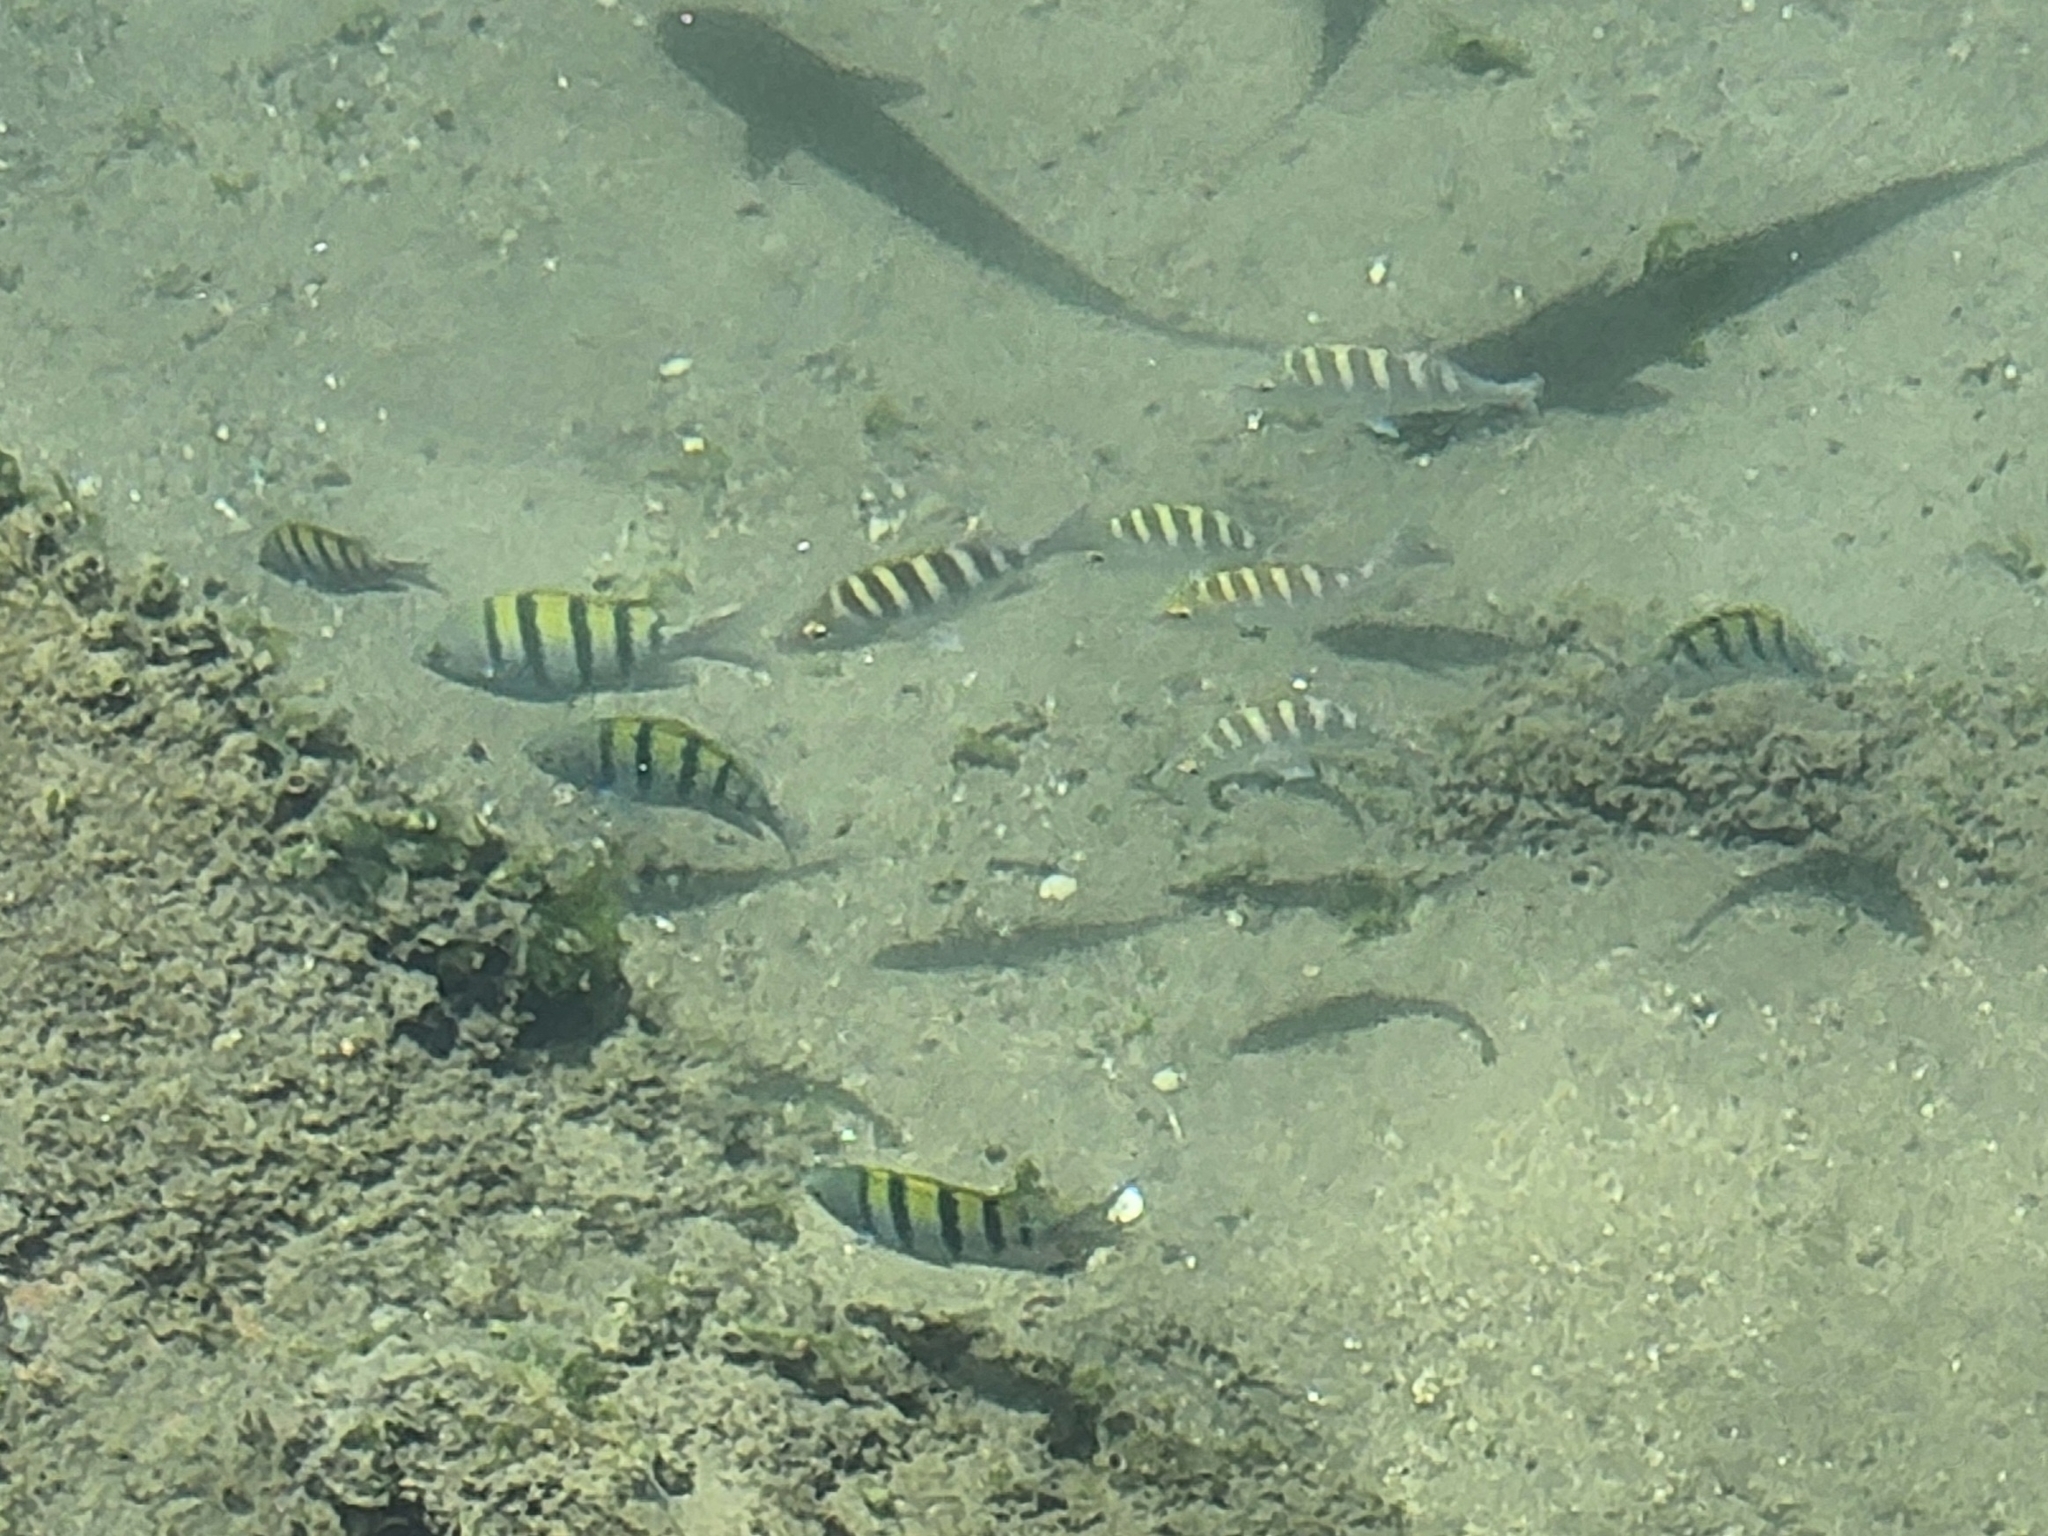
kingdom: Animalia
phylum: Chordata
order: Perciformes
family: Pomacentridae
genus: Abudefduf
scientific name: Abudefduf troschelii
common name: Panamic sergeant major
